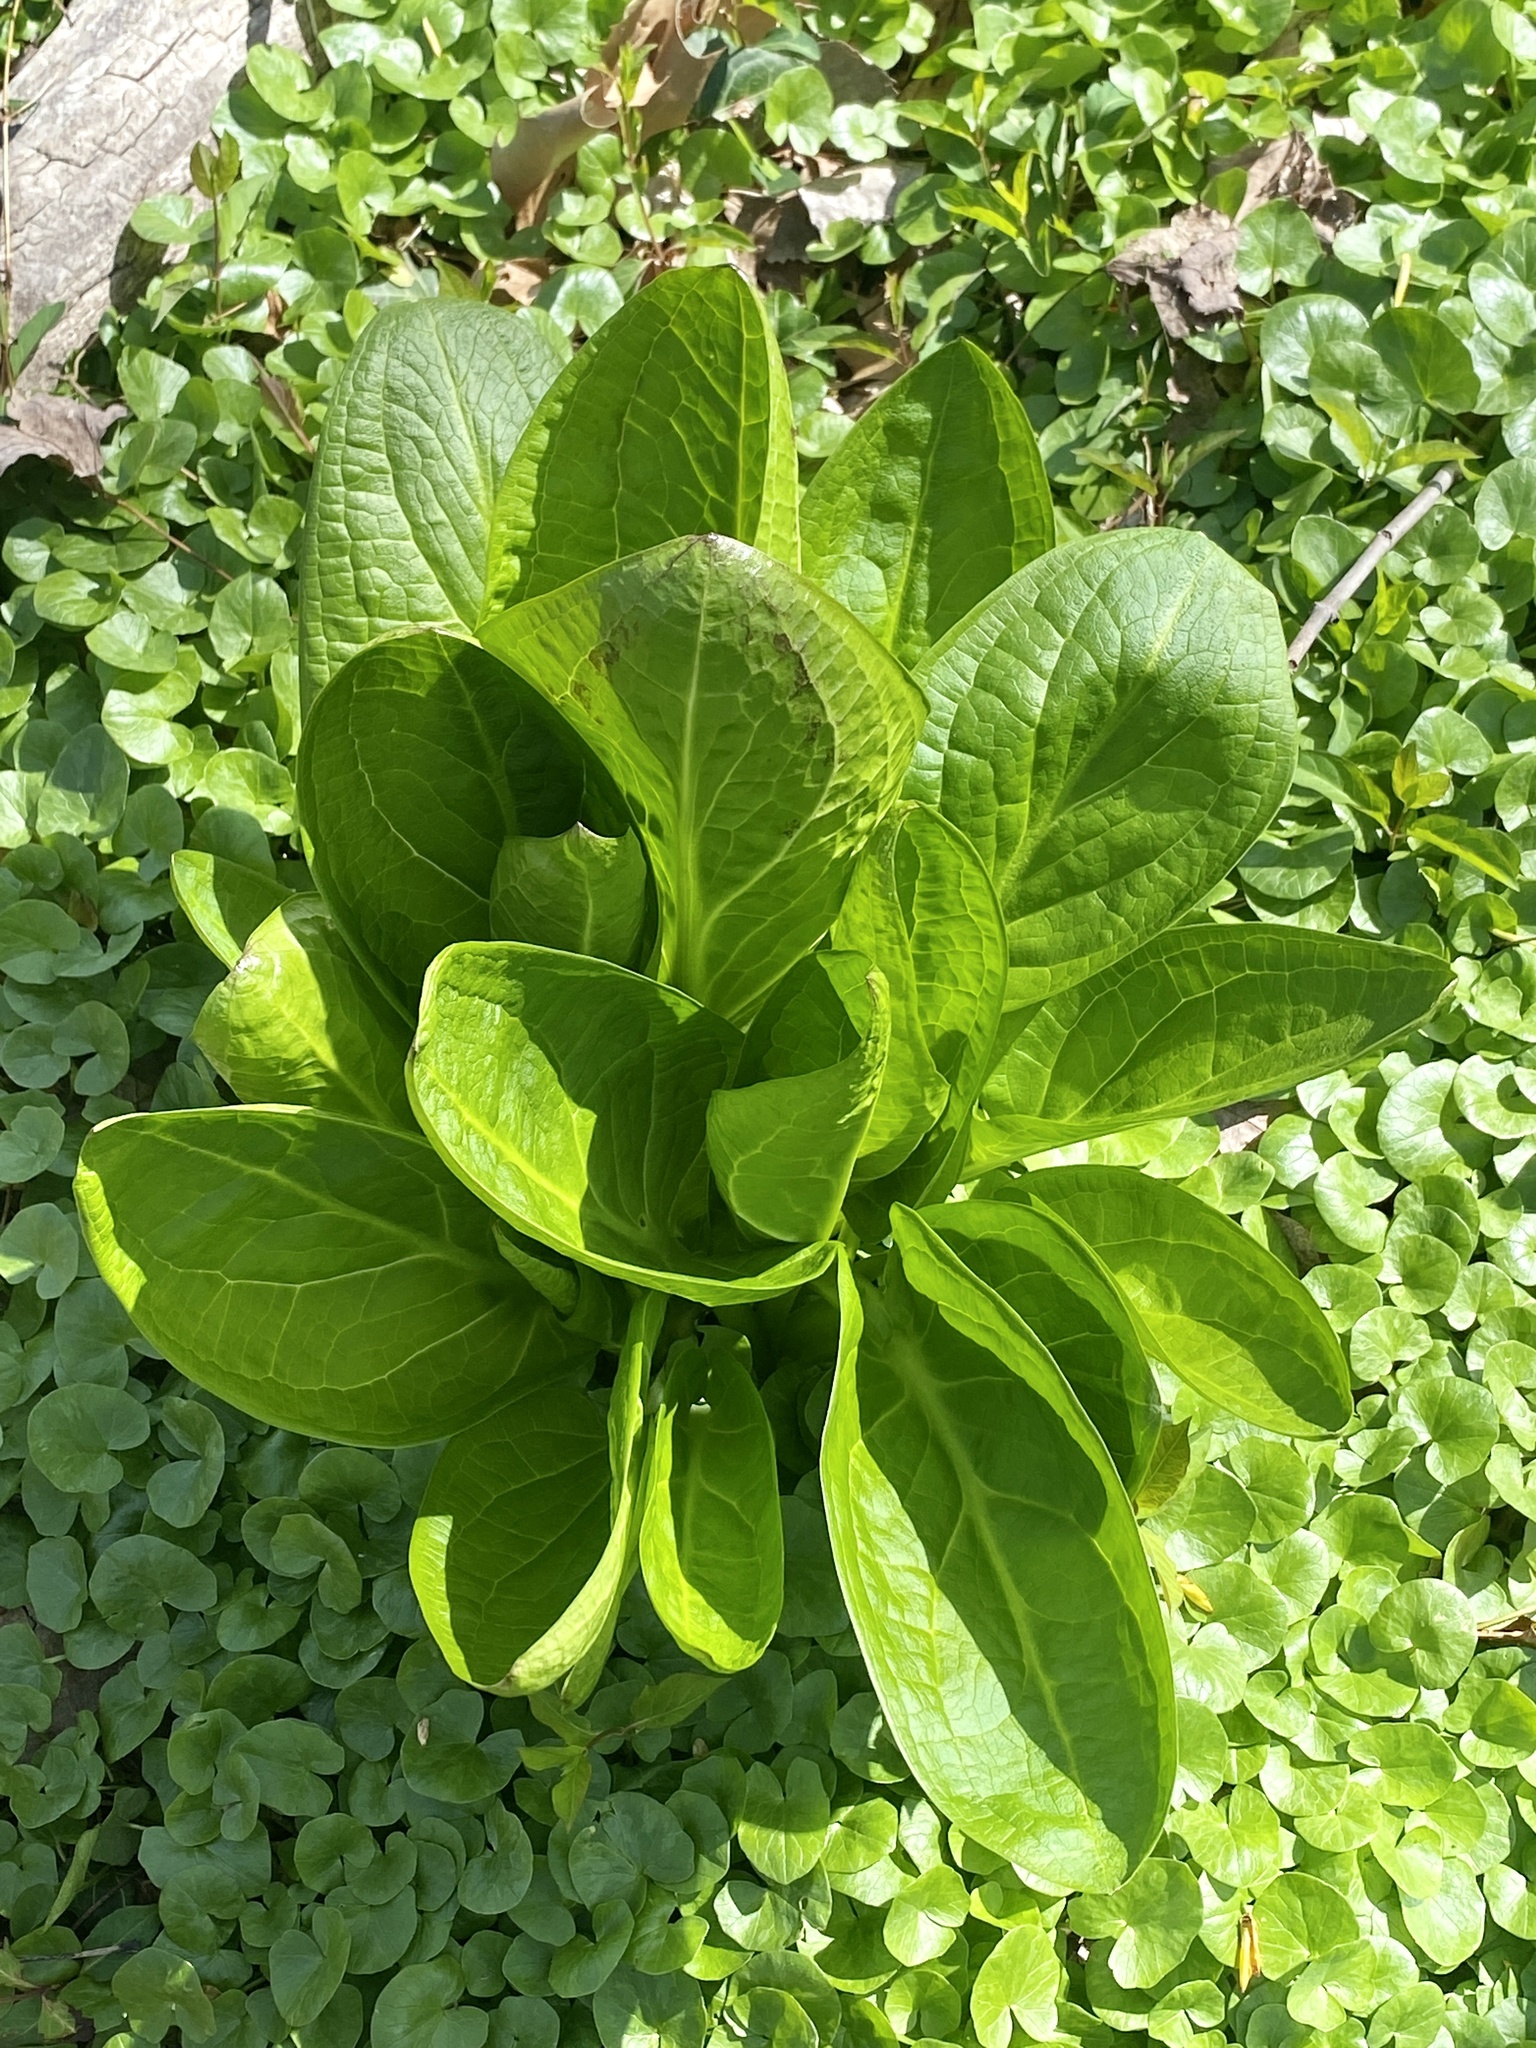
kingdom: Plantae
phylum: Tracheophyta
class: Liliopsida
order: Alismatales
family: Araceae
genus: Symplocarpus
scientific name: Symplocarpus foetidus
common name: Eastern skunk cabbage
